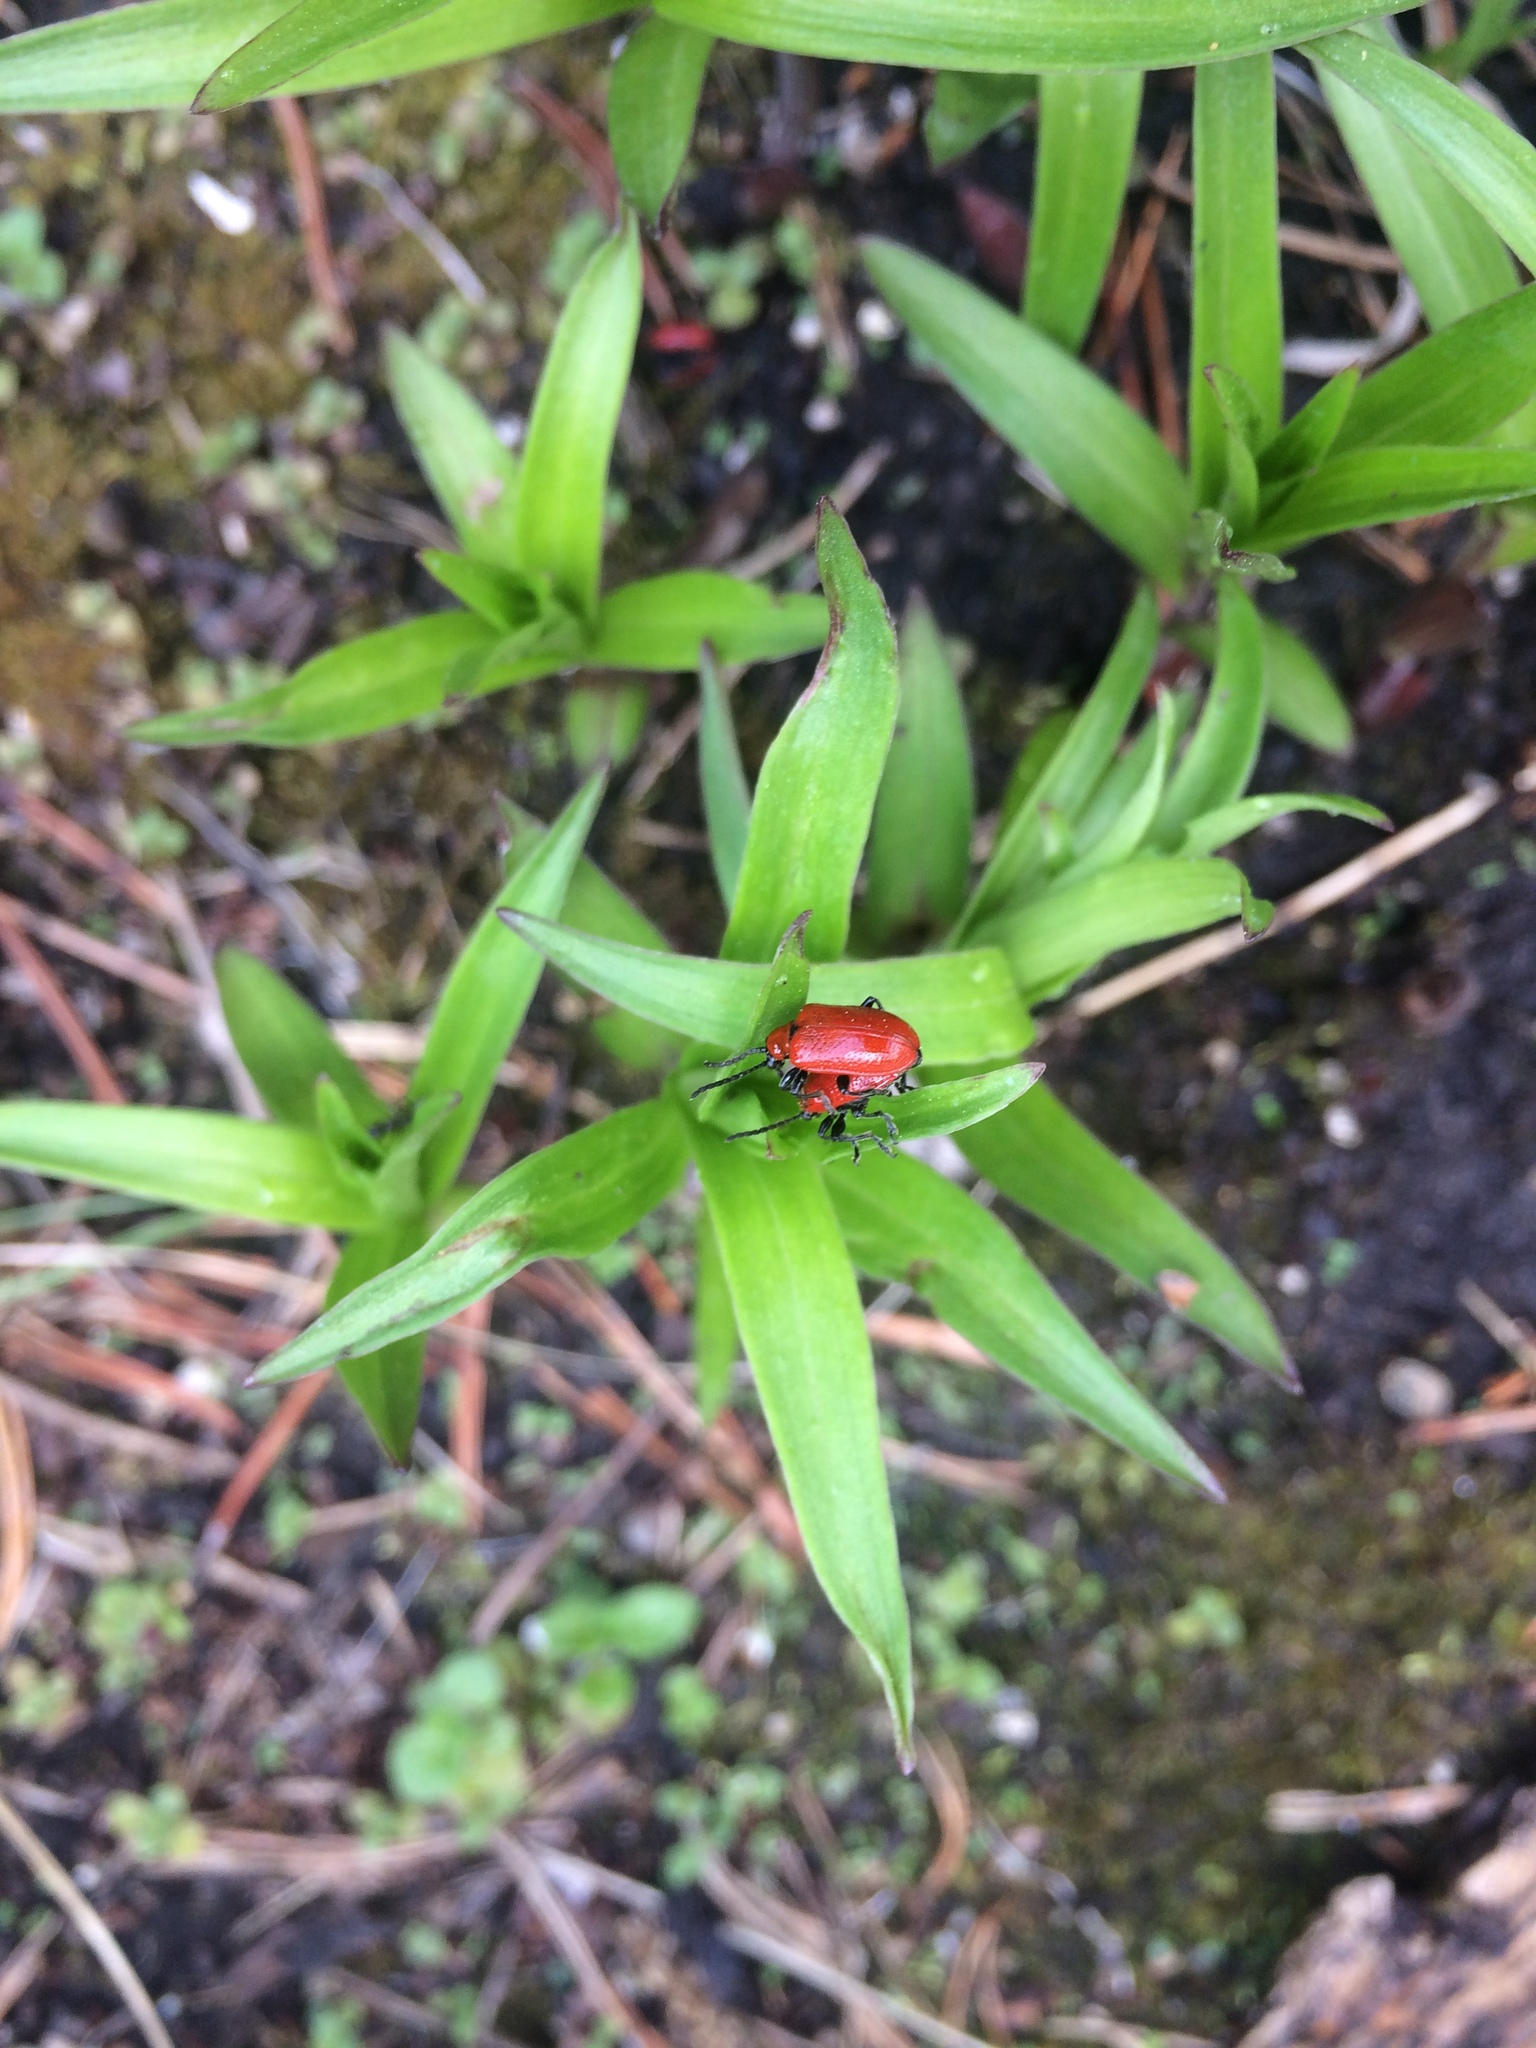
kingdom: Animalia
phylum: Arthropoda
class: Insecta
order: Coleoptera
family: Chrysomelidae
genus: Lilioceris
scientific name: Lilioceris lilii
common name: Lily beetle
